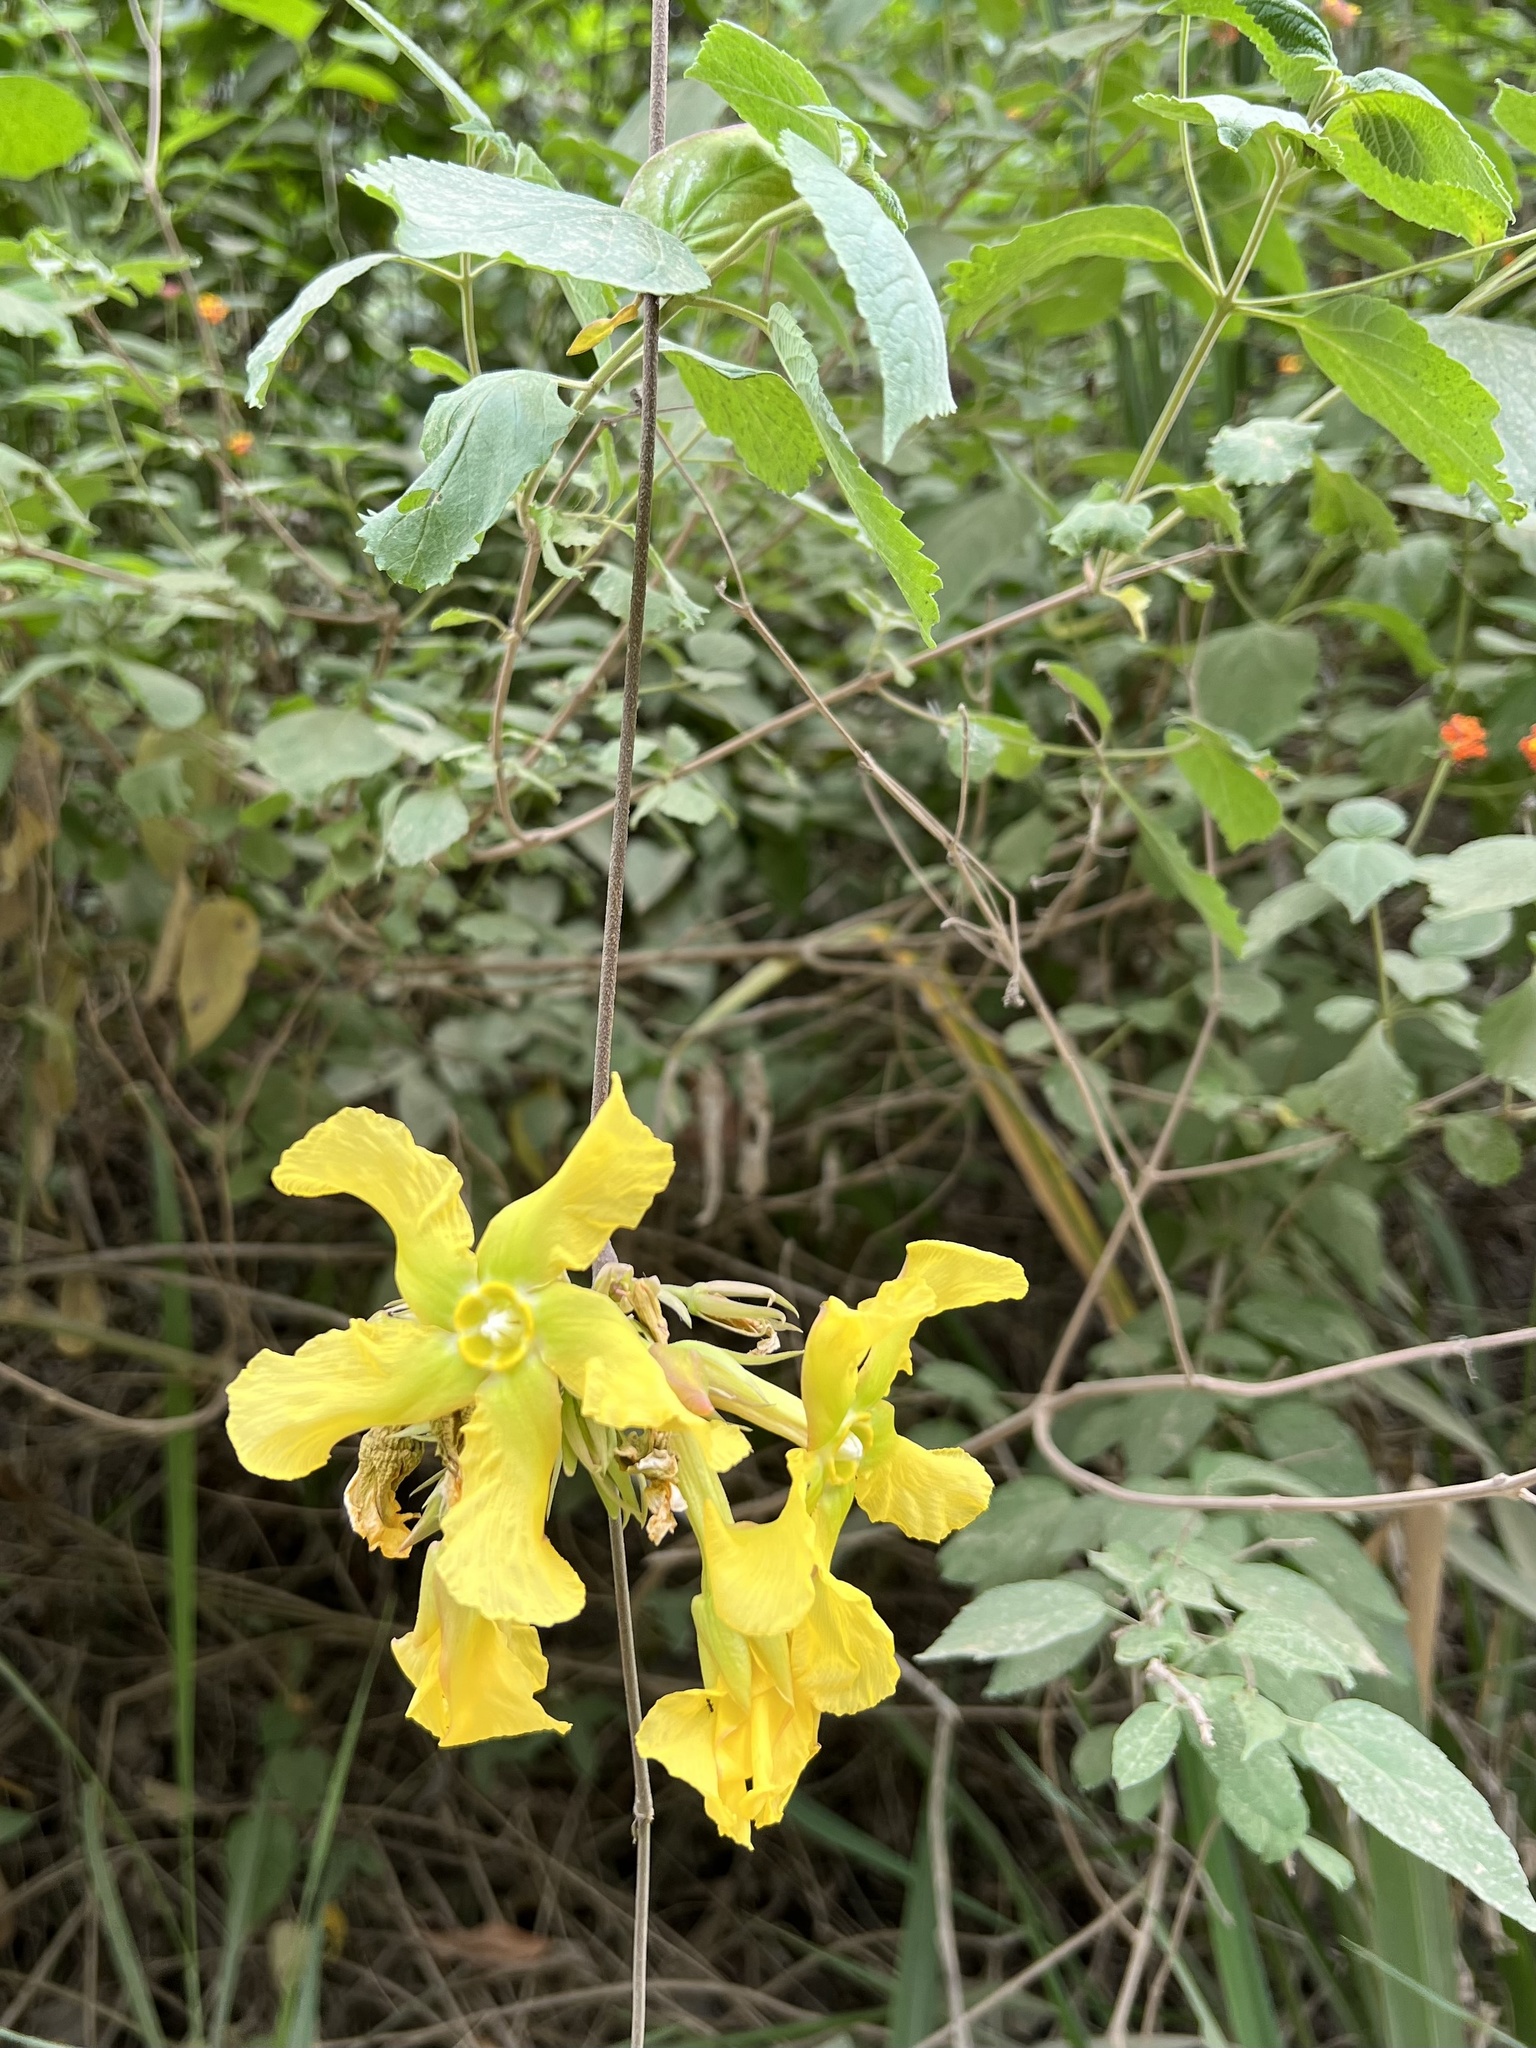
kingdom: Plantae
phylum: Tracheophyta
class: Magnoliopsida
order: Gentianales
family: Apocynaceae
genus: Prestonia
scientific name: Prestonia mollis
